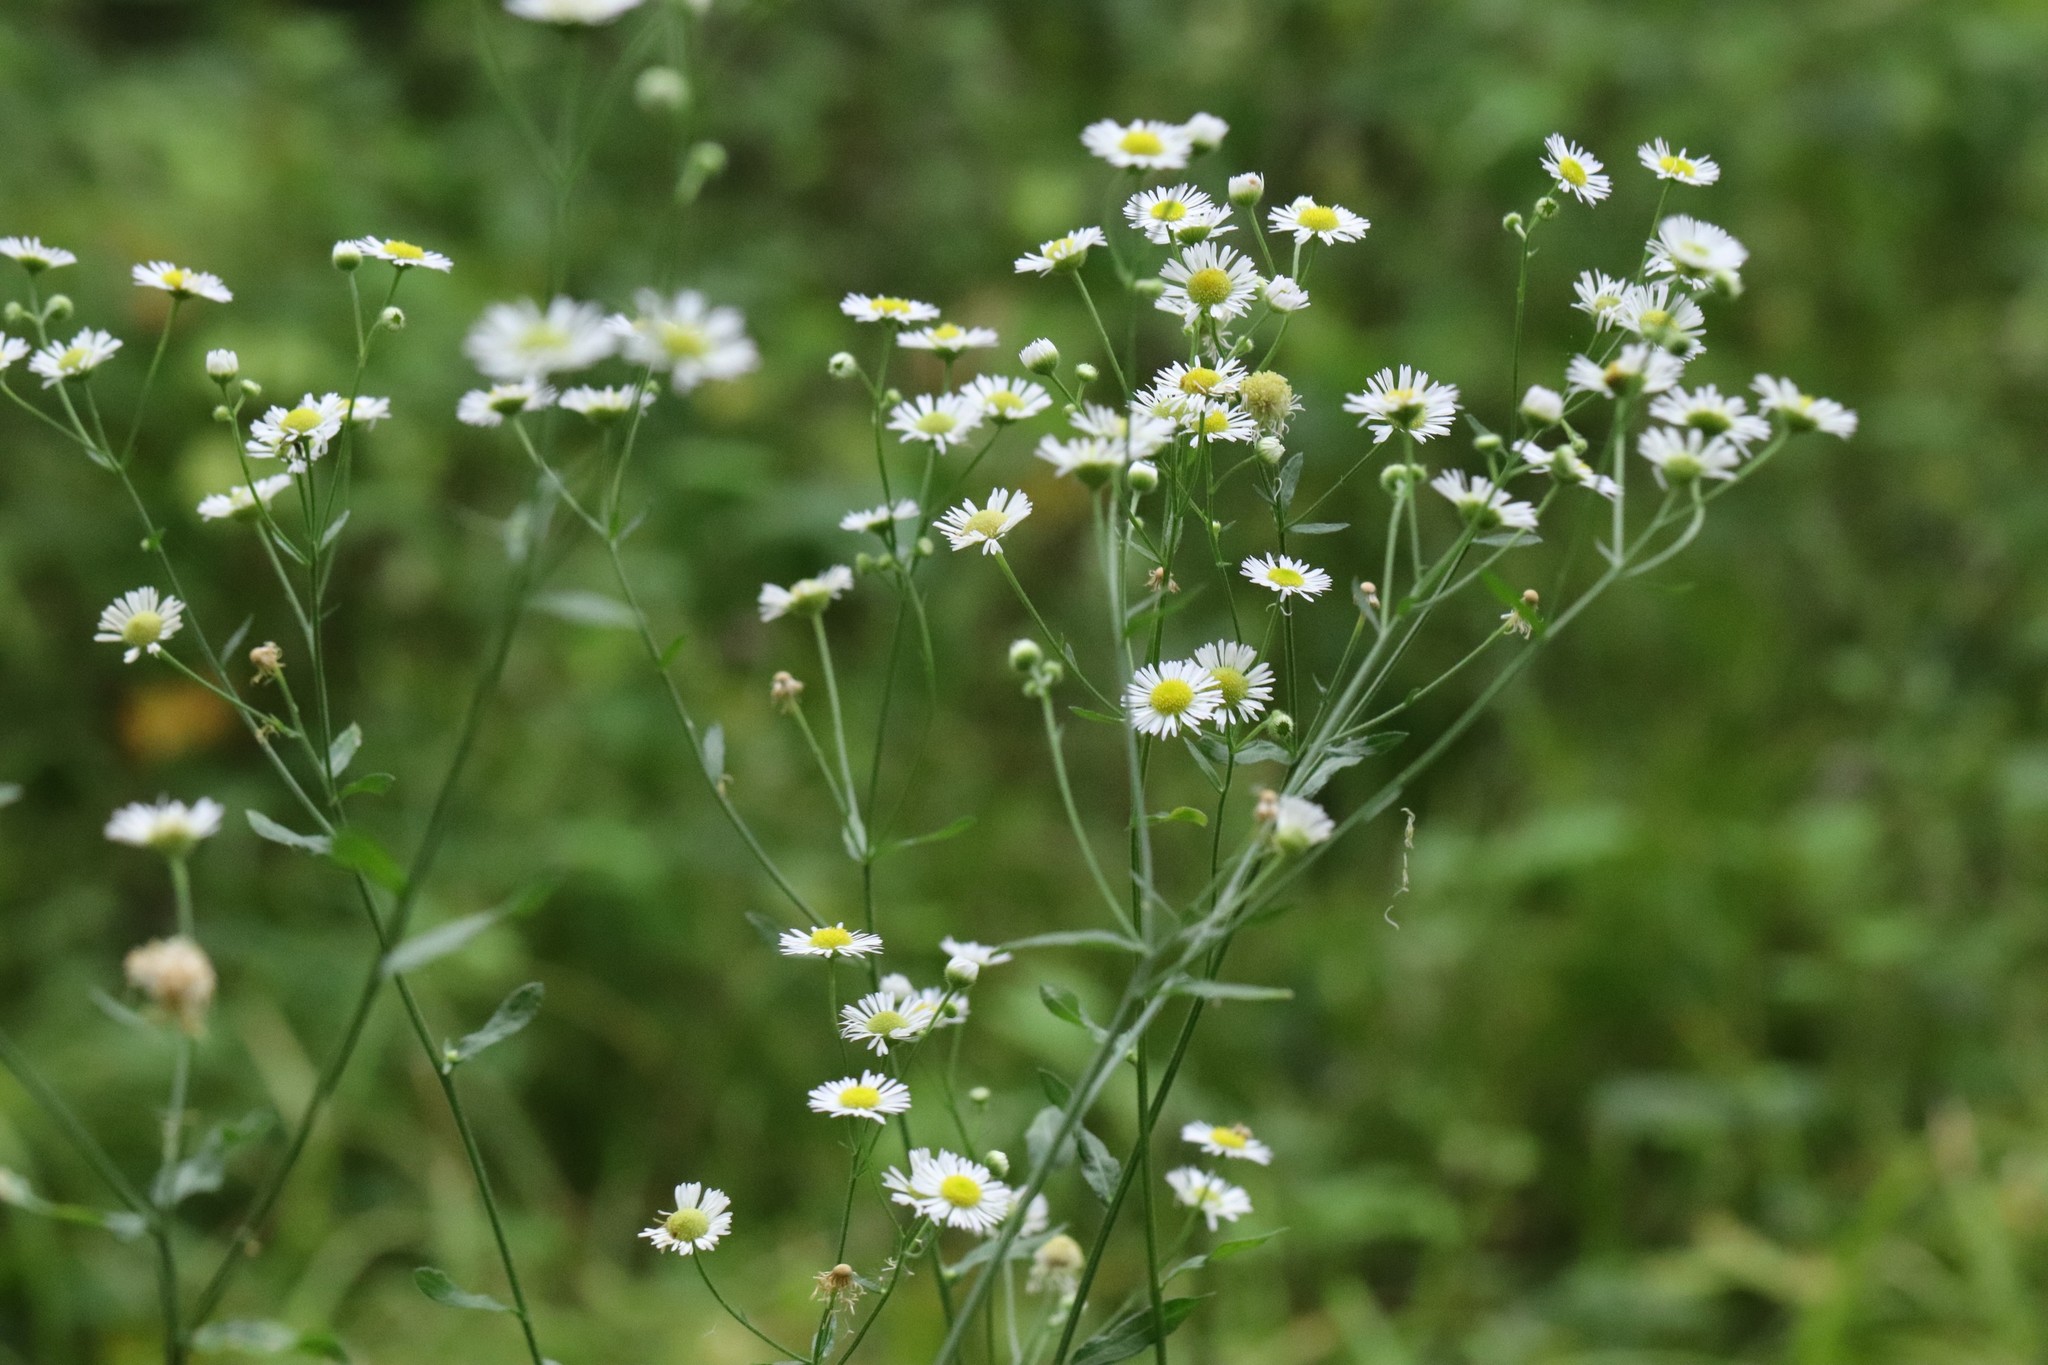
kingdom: Plantae
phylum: Tracheophyta
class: Magnoliopsida
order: Asterales
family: Asteraceae
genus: Erigeron
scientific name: Erigeron strigosus
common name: Common eastern fleabane
